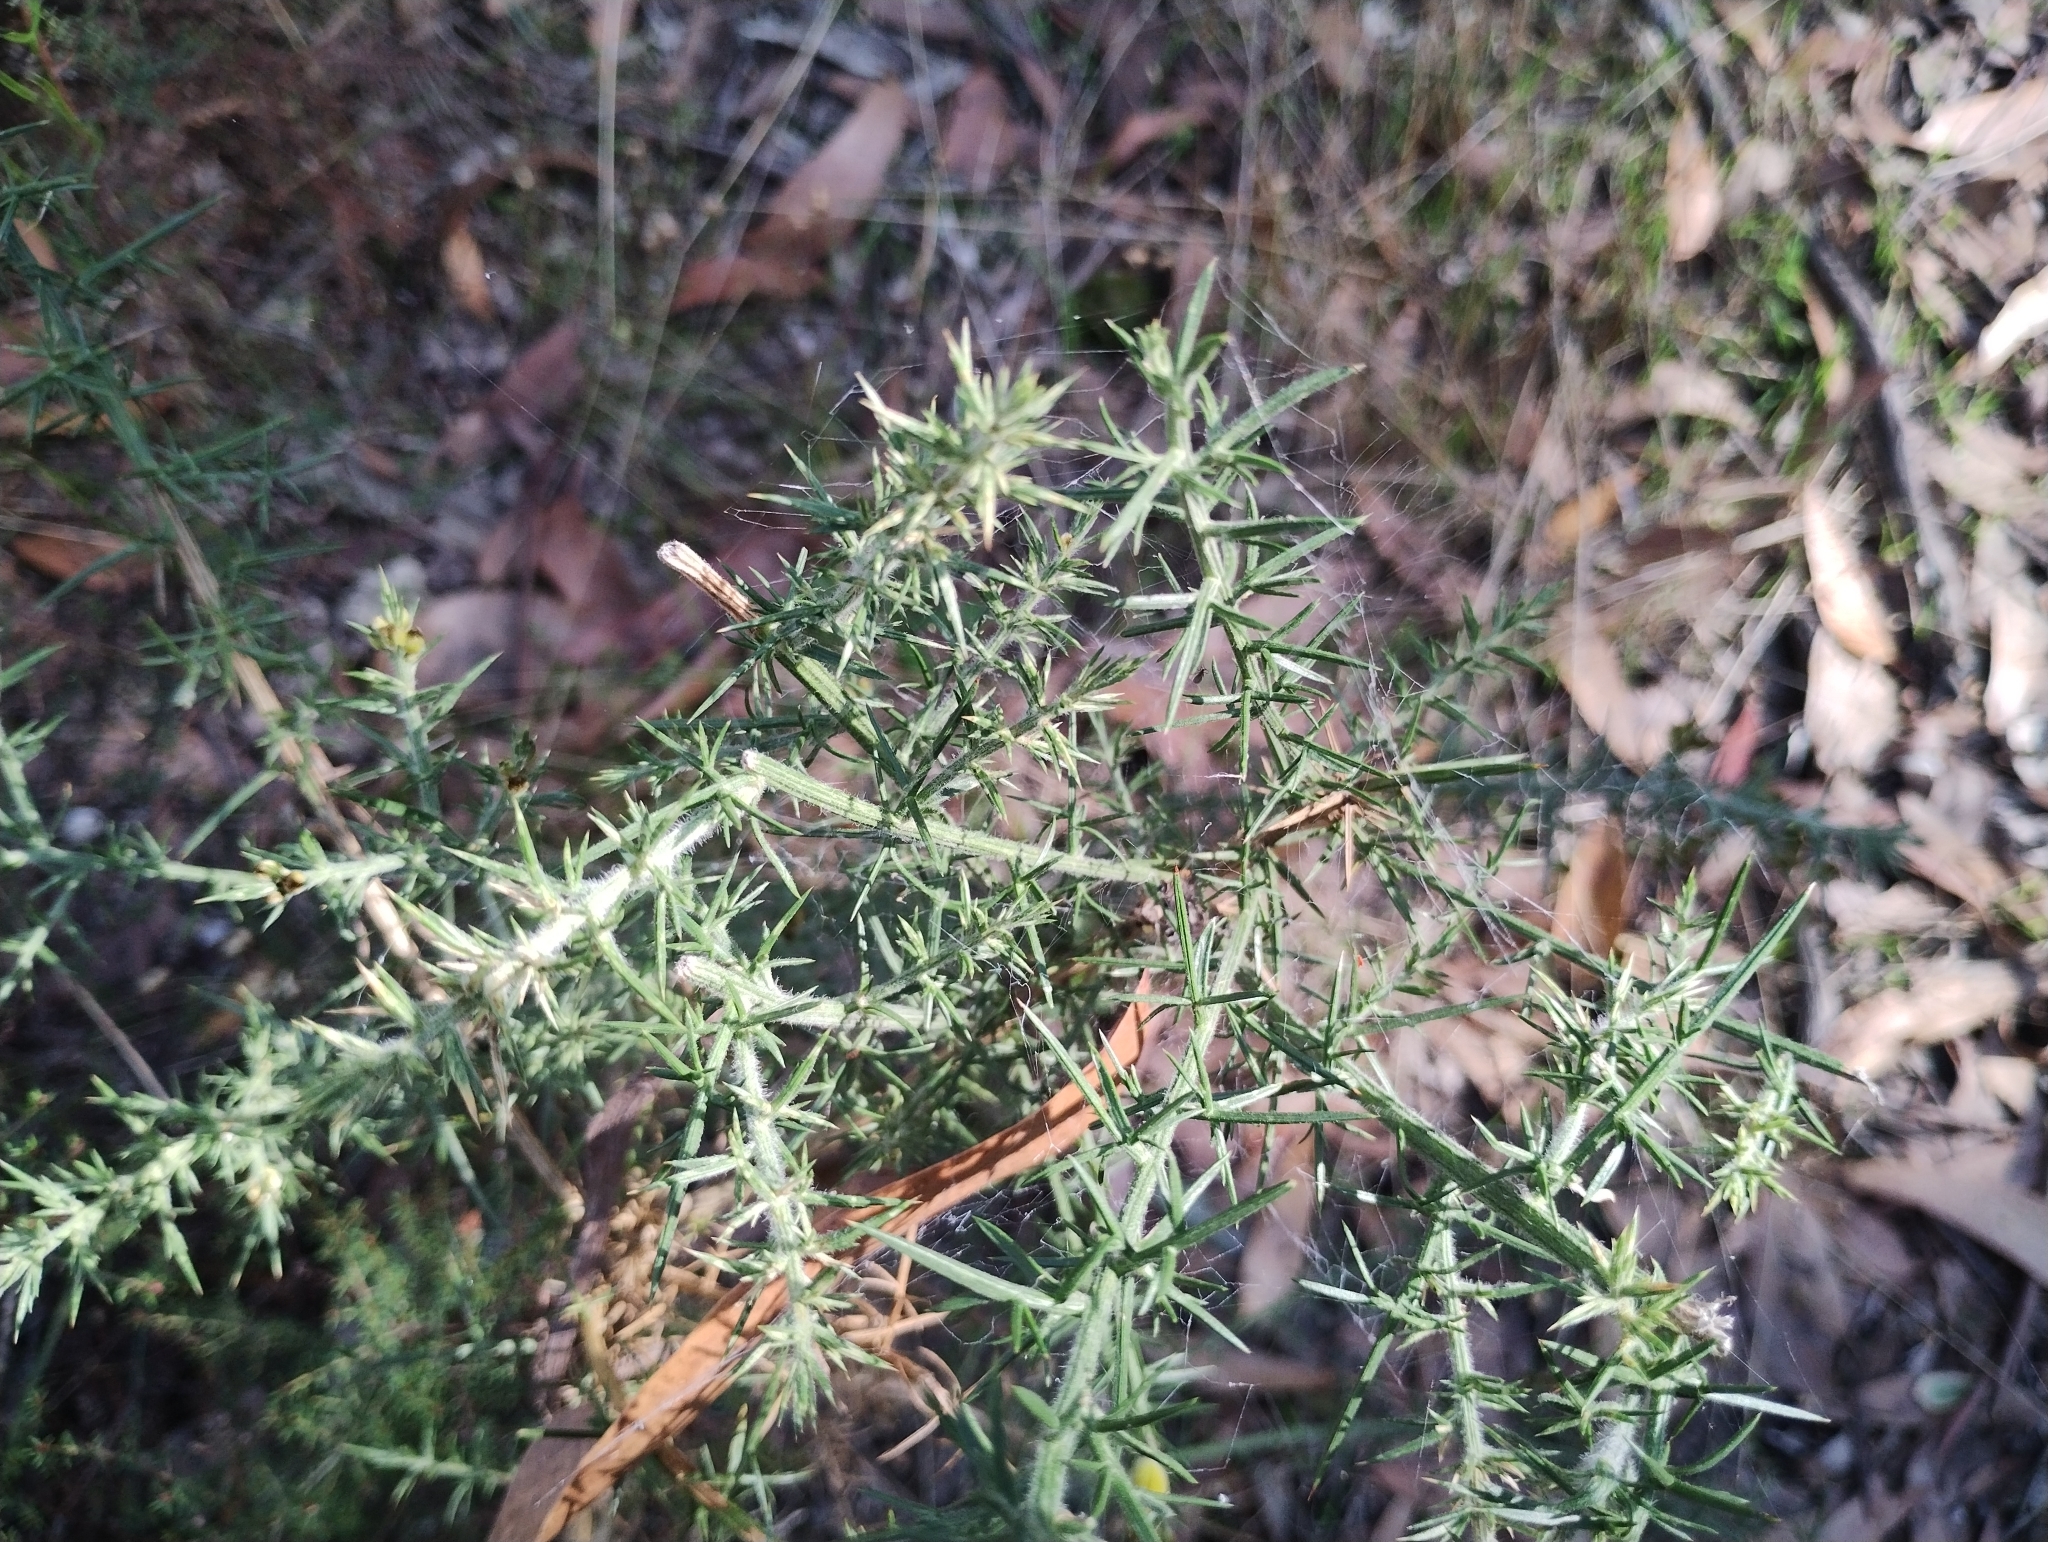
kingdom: Plantae
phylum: Tracheophyta
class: Magnoliopsida
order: Fabales
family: Fabaceae
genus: Ulex
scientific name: Ulex europaeus
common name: Common gorse
